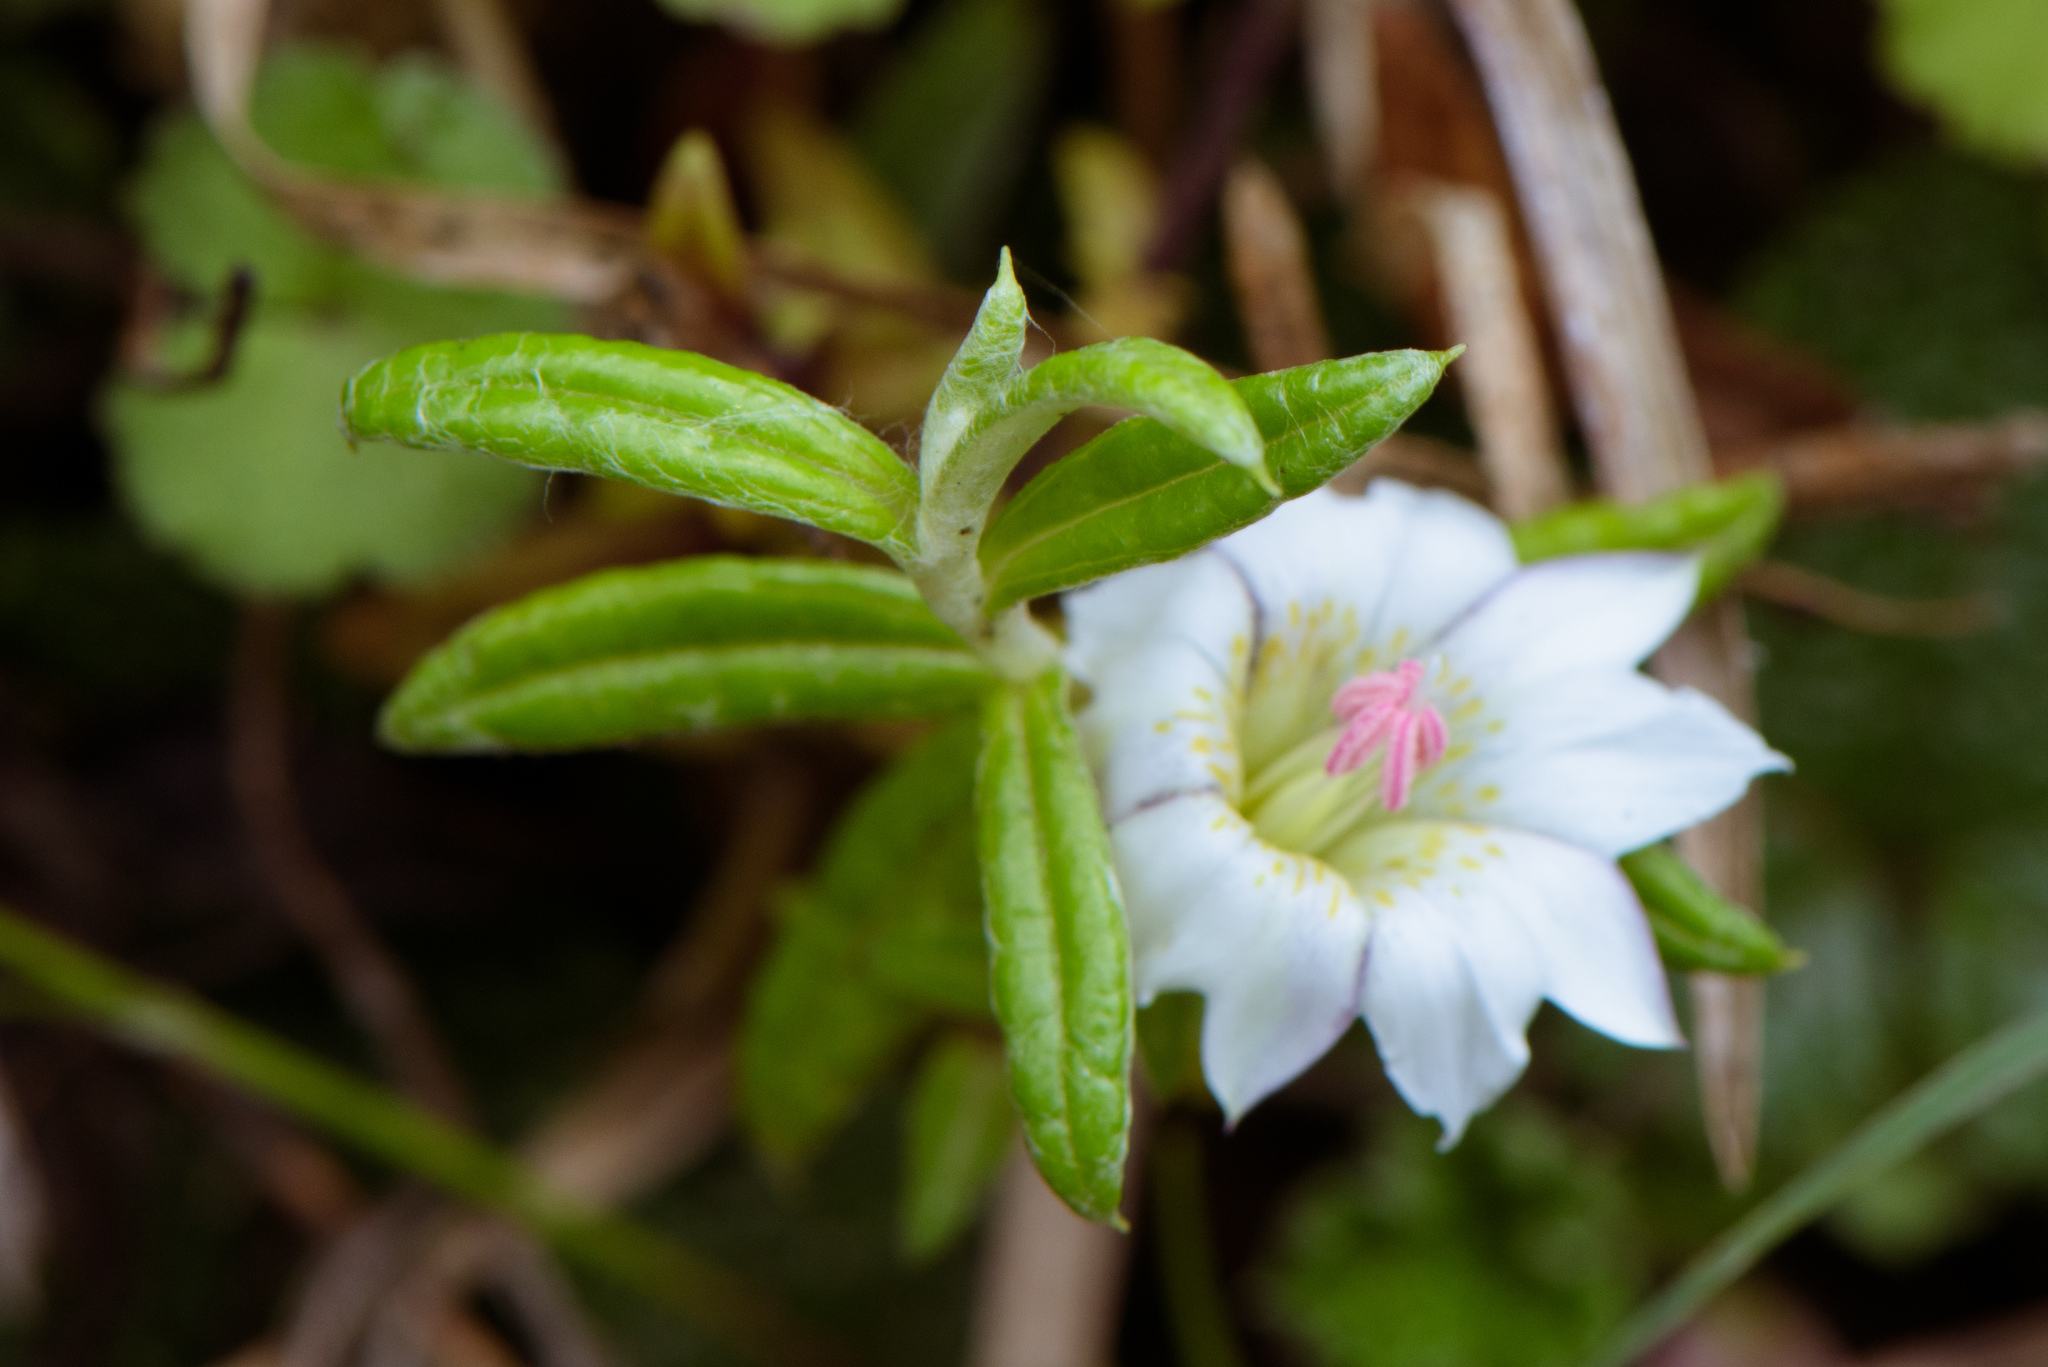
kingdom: Plantae
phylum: Tracheophyta
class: Magnoliopsida
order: Gentianales
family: Gentianaceae
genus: Gentiana
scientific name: Gentiana flavomaculata
